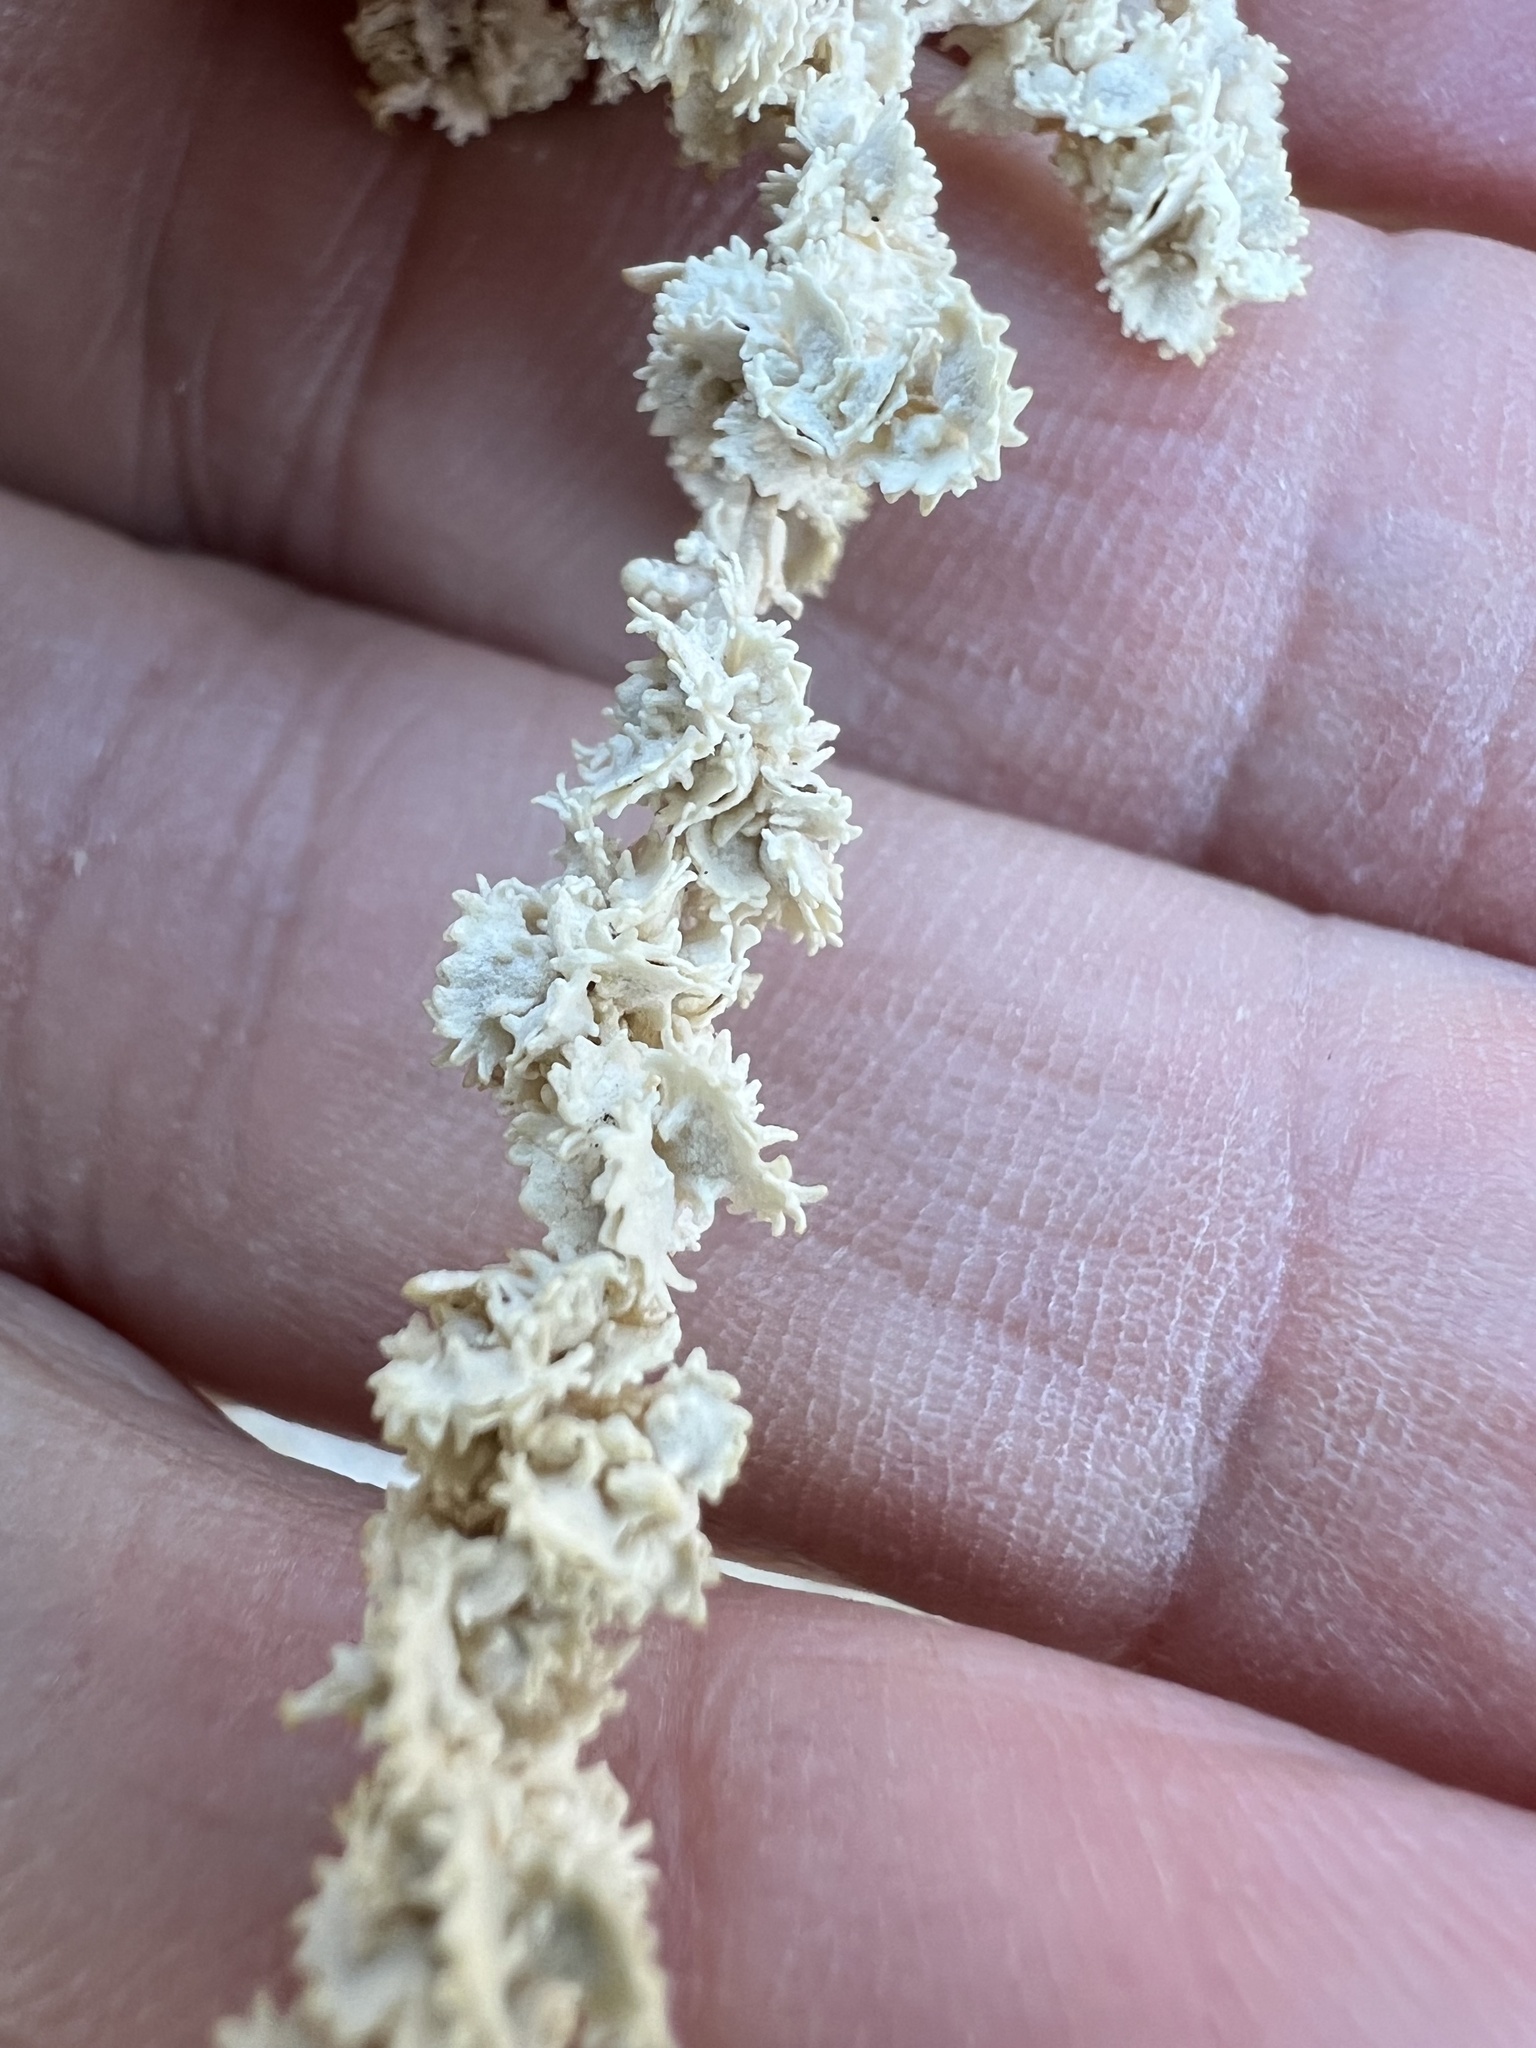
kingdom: Plantae
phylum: Tracheophyta
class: Magnoliopsida
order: Caryophyllales
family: Amaranthaceae
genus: Atriplex
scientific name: Atriplex polycarpa
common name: Desert saltbush
